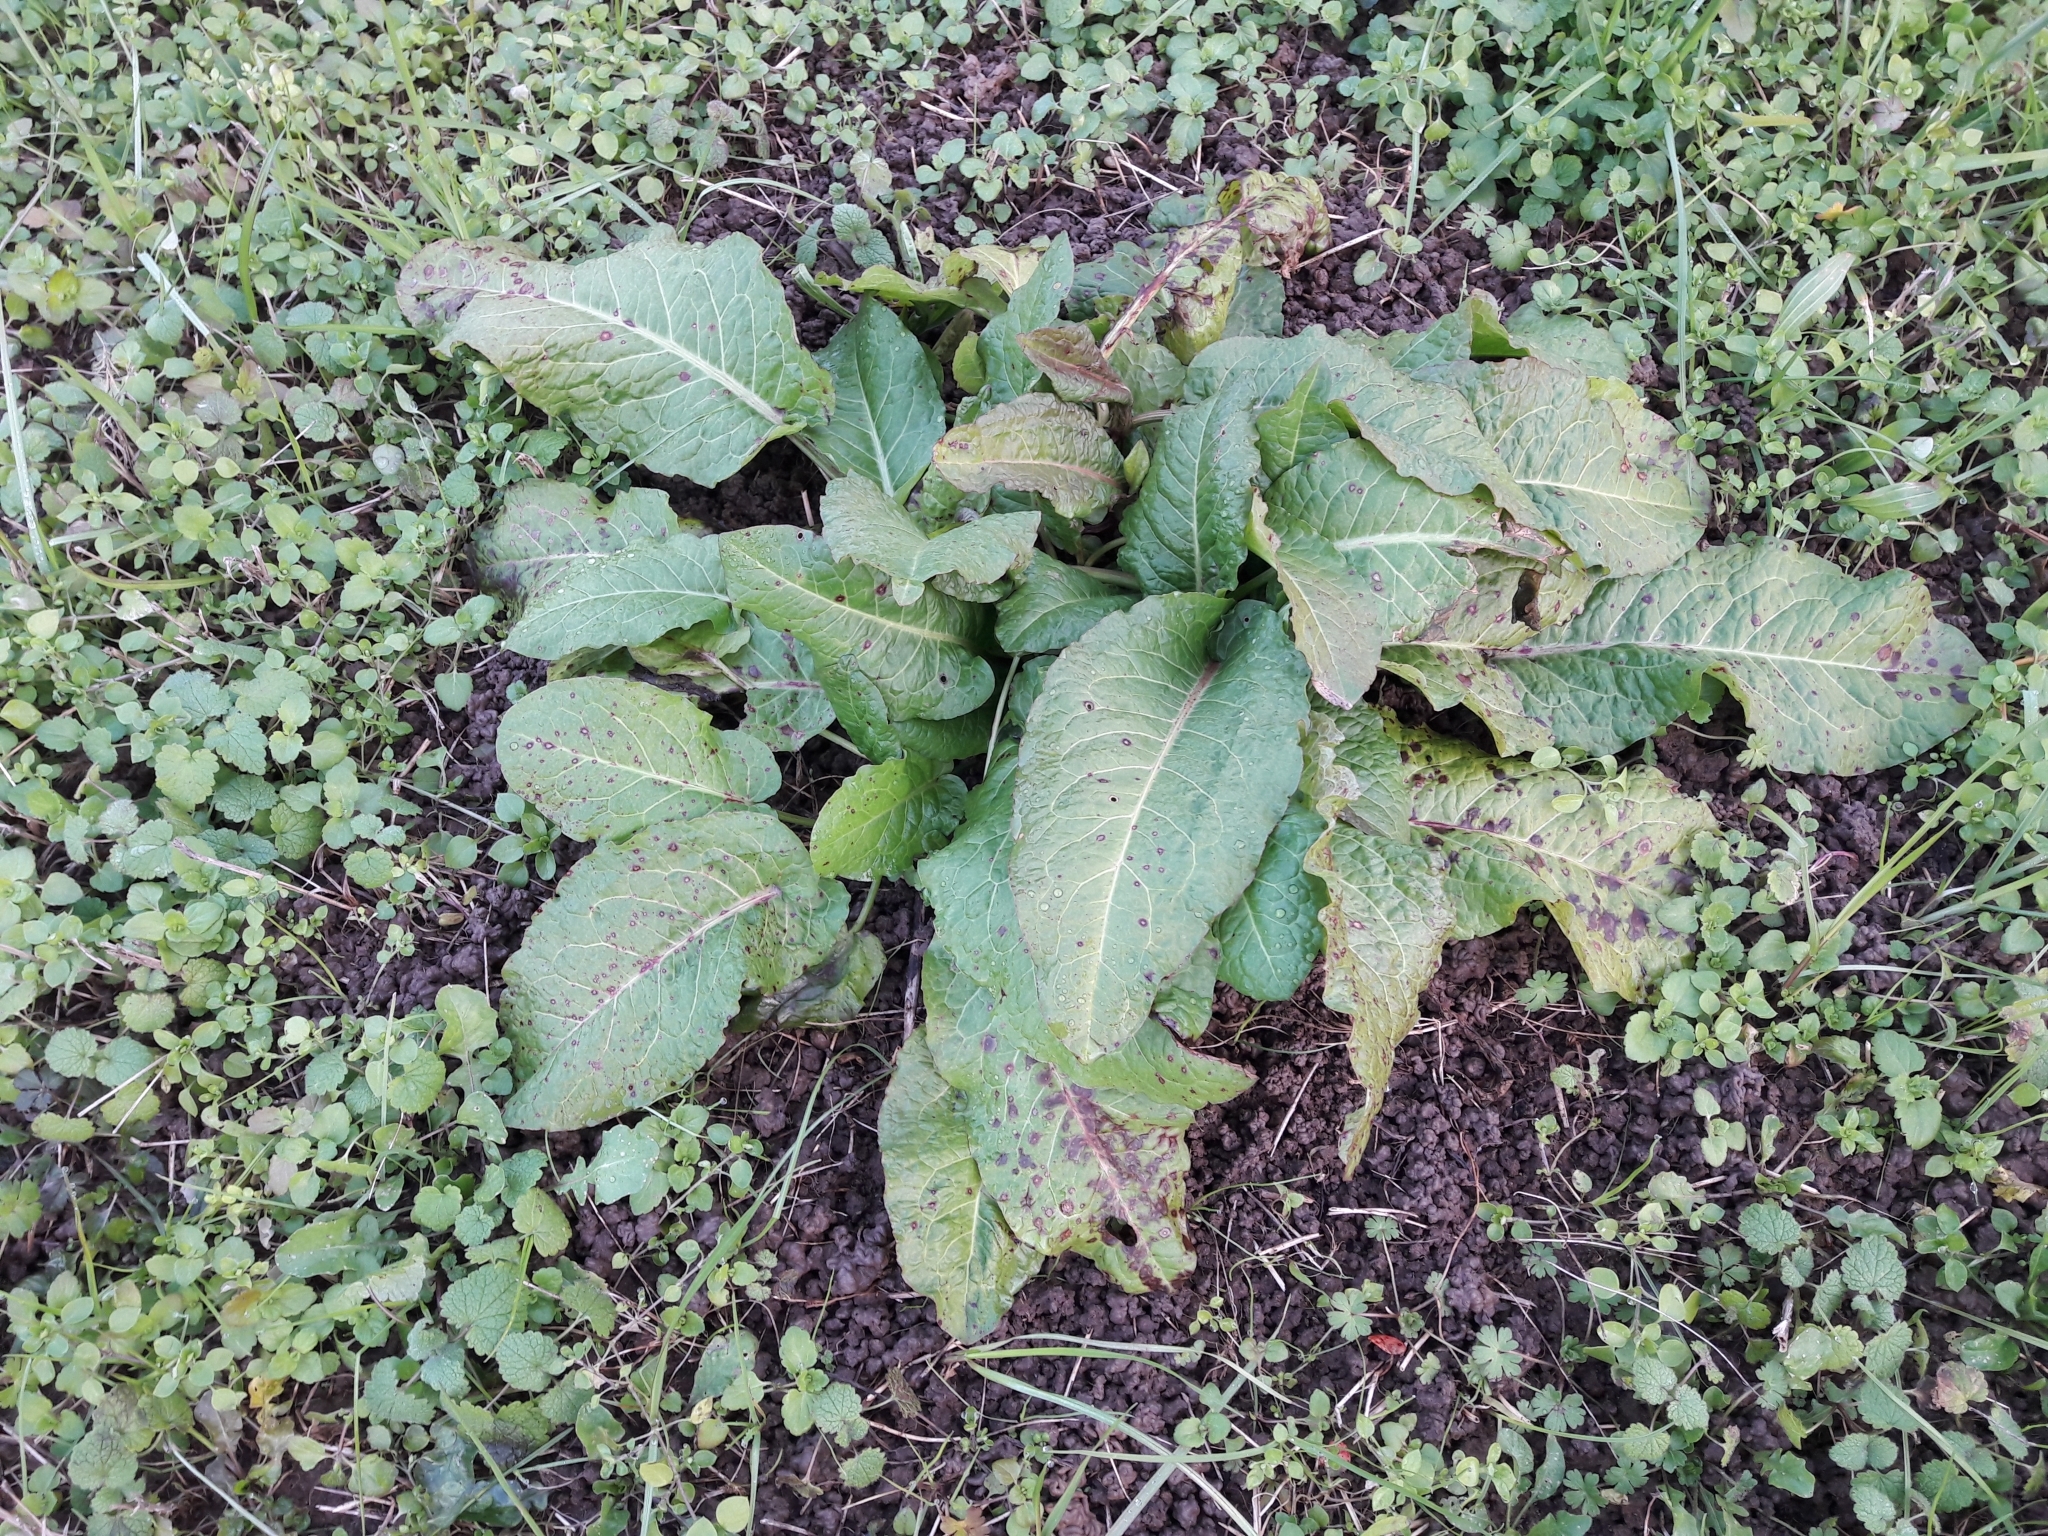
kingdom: Plantae
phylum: Tracheophyta
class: Magnoliopsida
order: Caryophyllales
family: Polygonaceae
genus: Rumex
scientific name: Rumex obtusifolius
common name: Bitter dock
